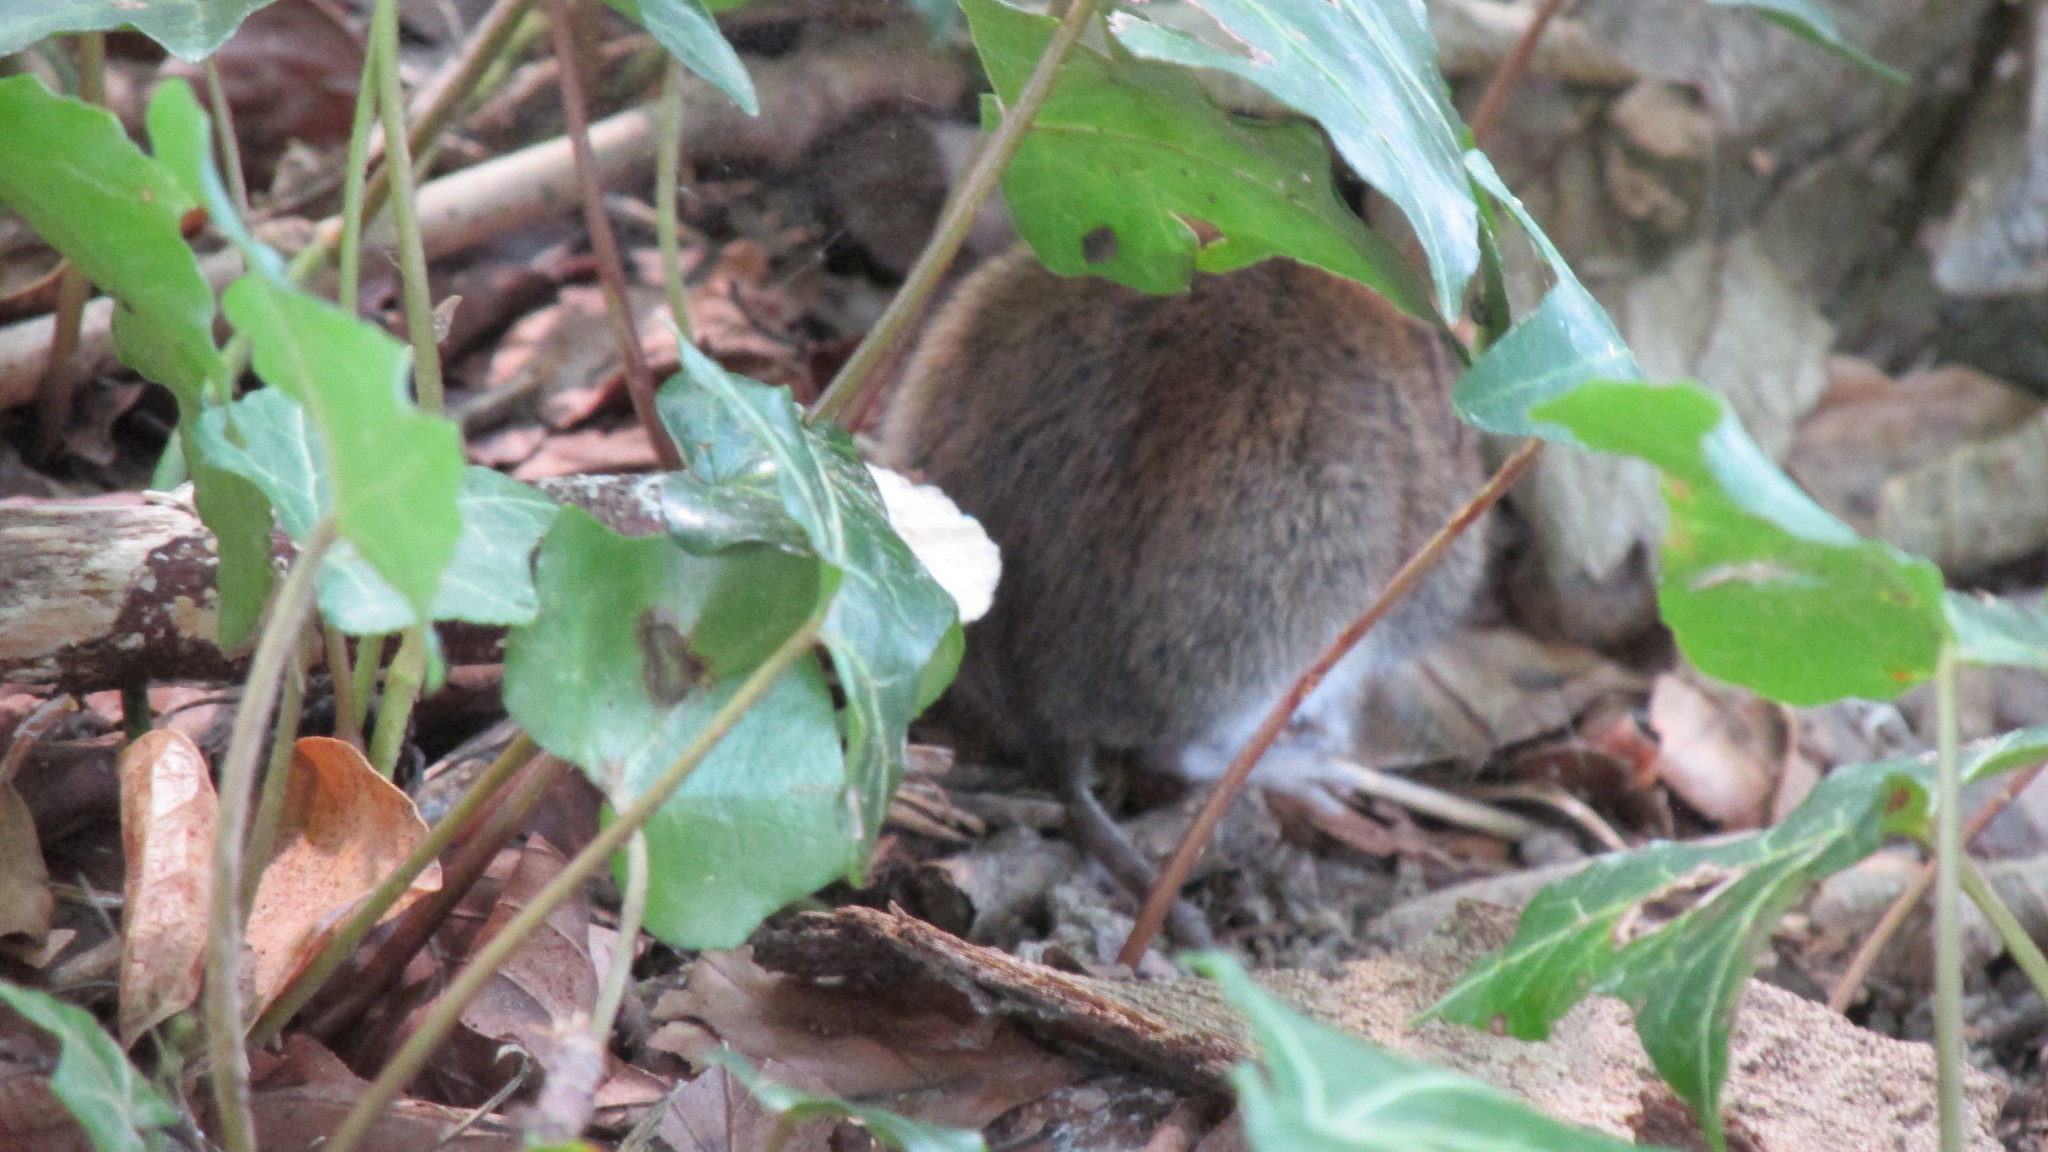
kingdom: Animalia
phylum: Chordata
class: Mammalia
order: Rodentia
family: Cricetidae
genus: Myodes
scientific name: Myodes glareolus
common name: Bank vole
